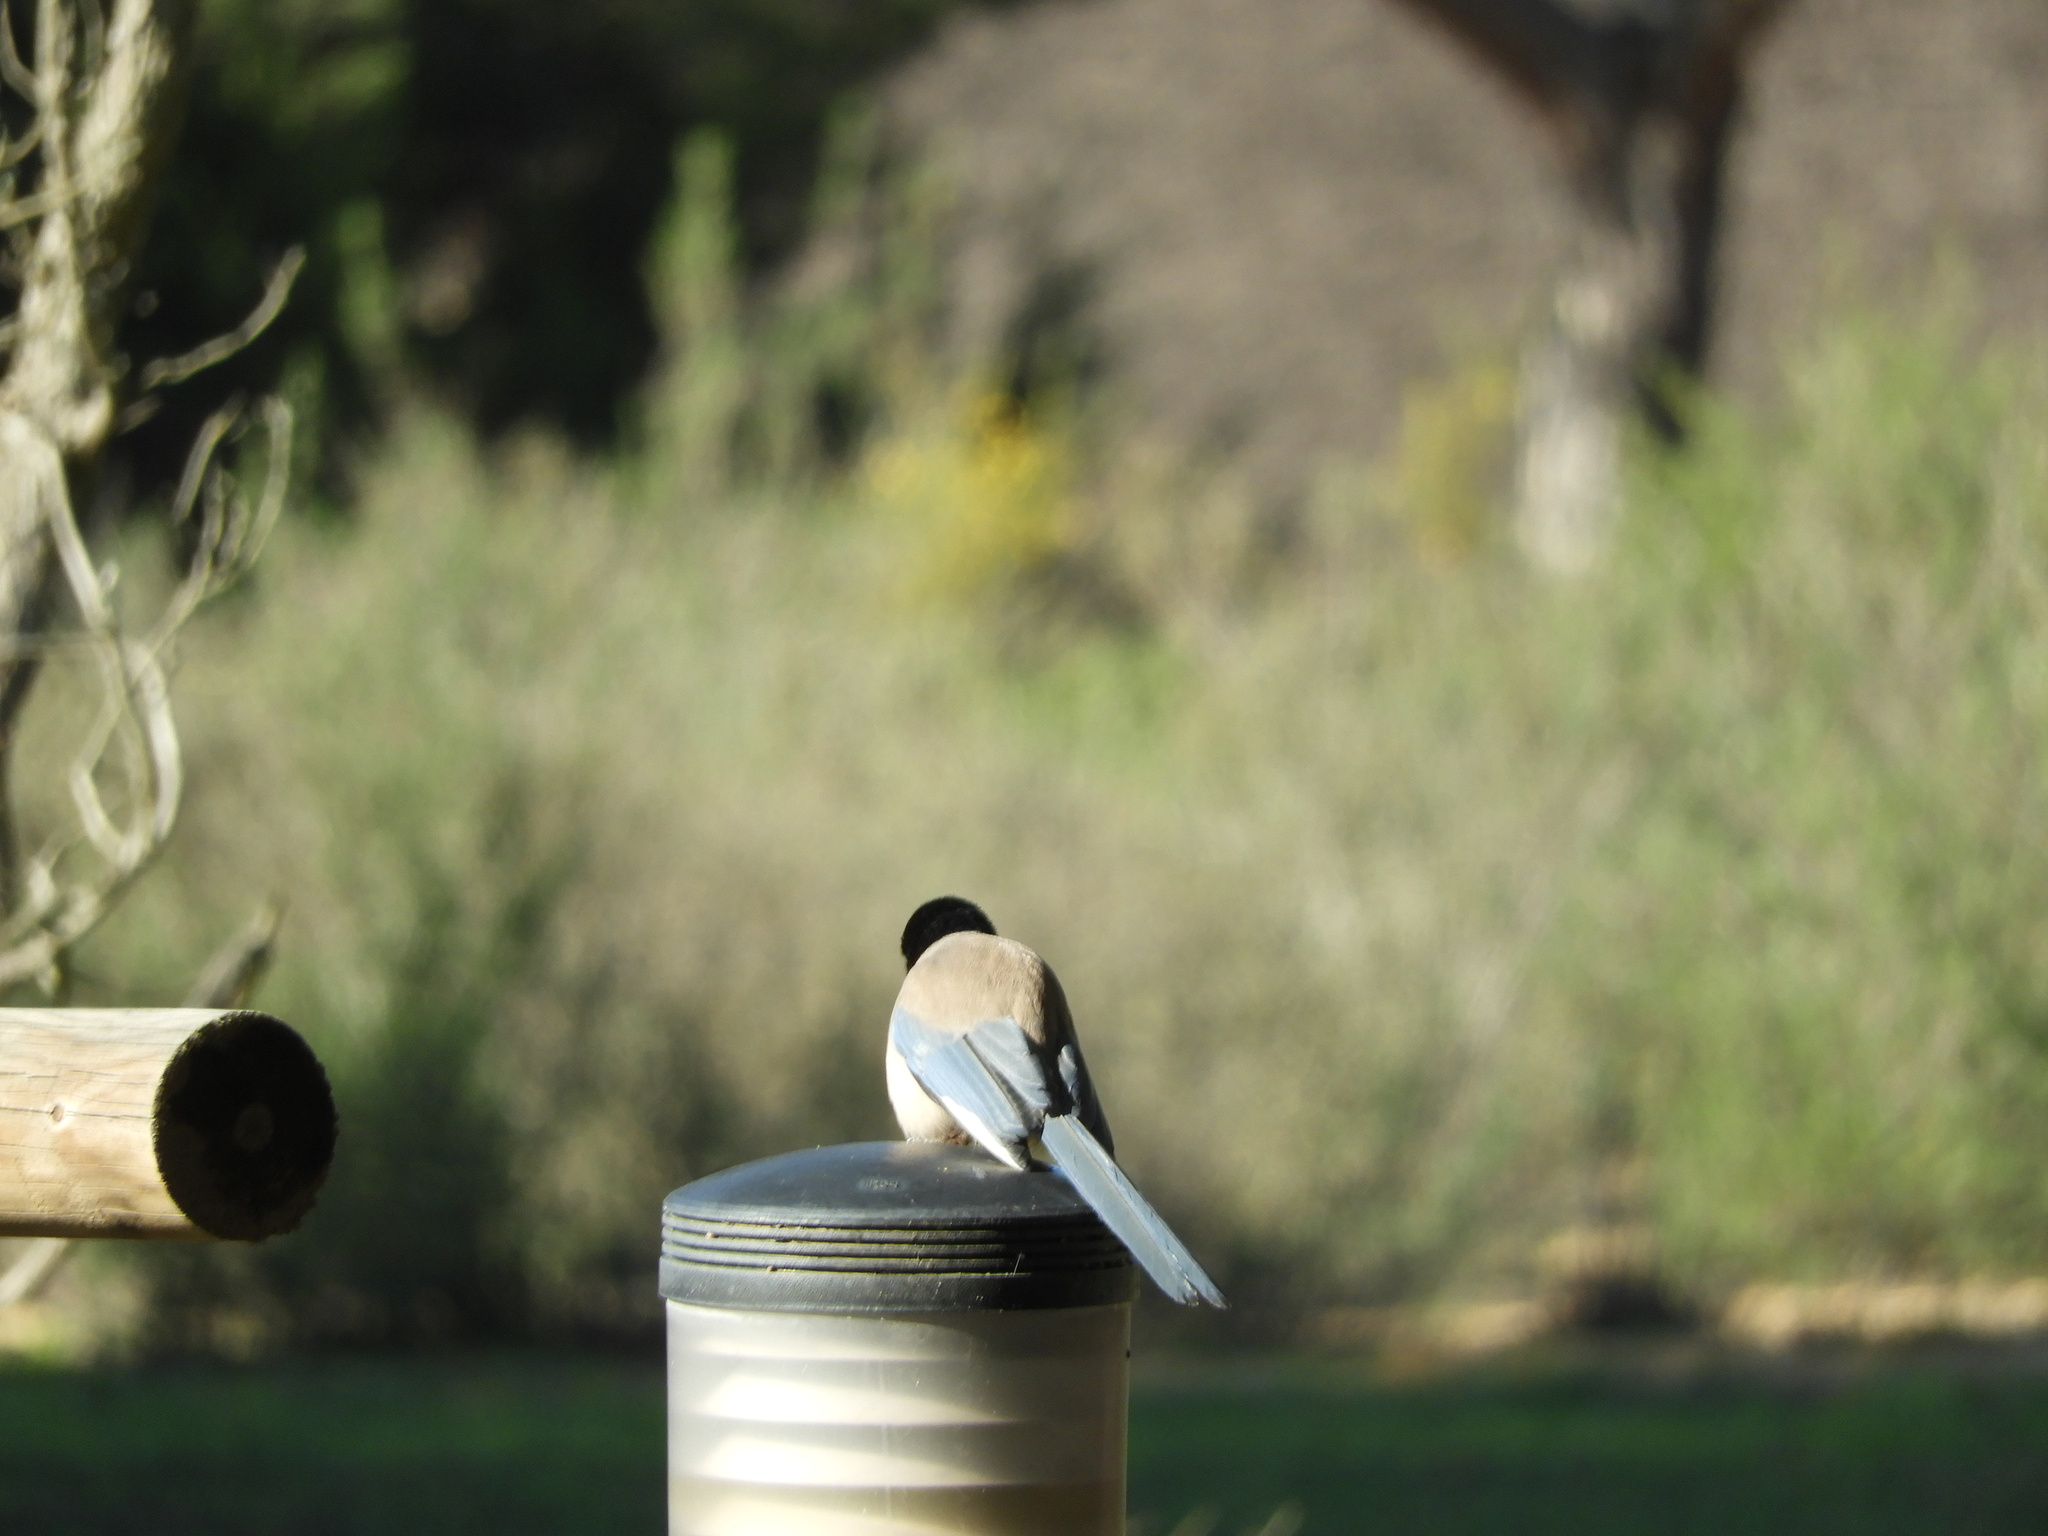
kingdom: Animalia
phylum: Chordata
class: Aves
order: Passeriformes
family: Corvidae
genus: Cyanopica
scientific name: Cyanopica cooki
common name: Iberian magpie
